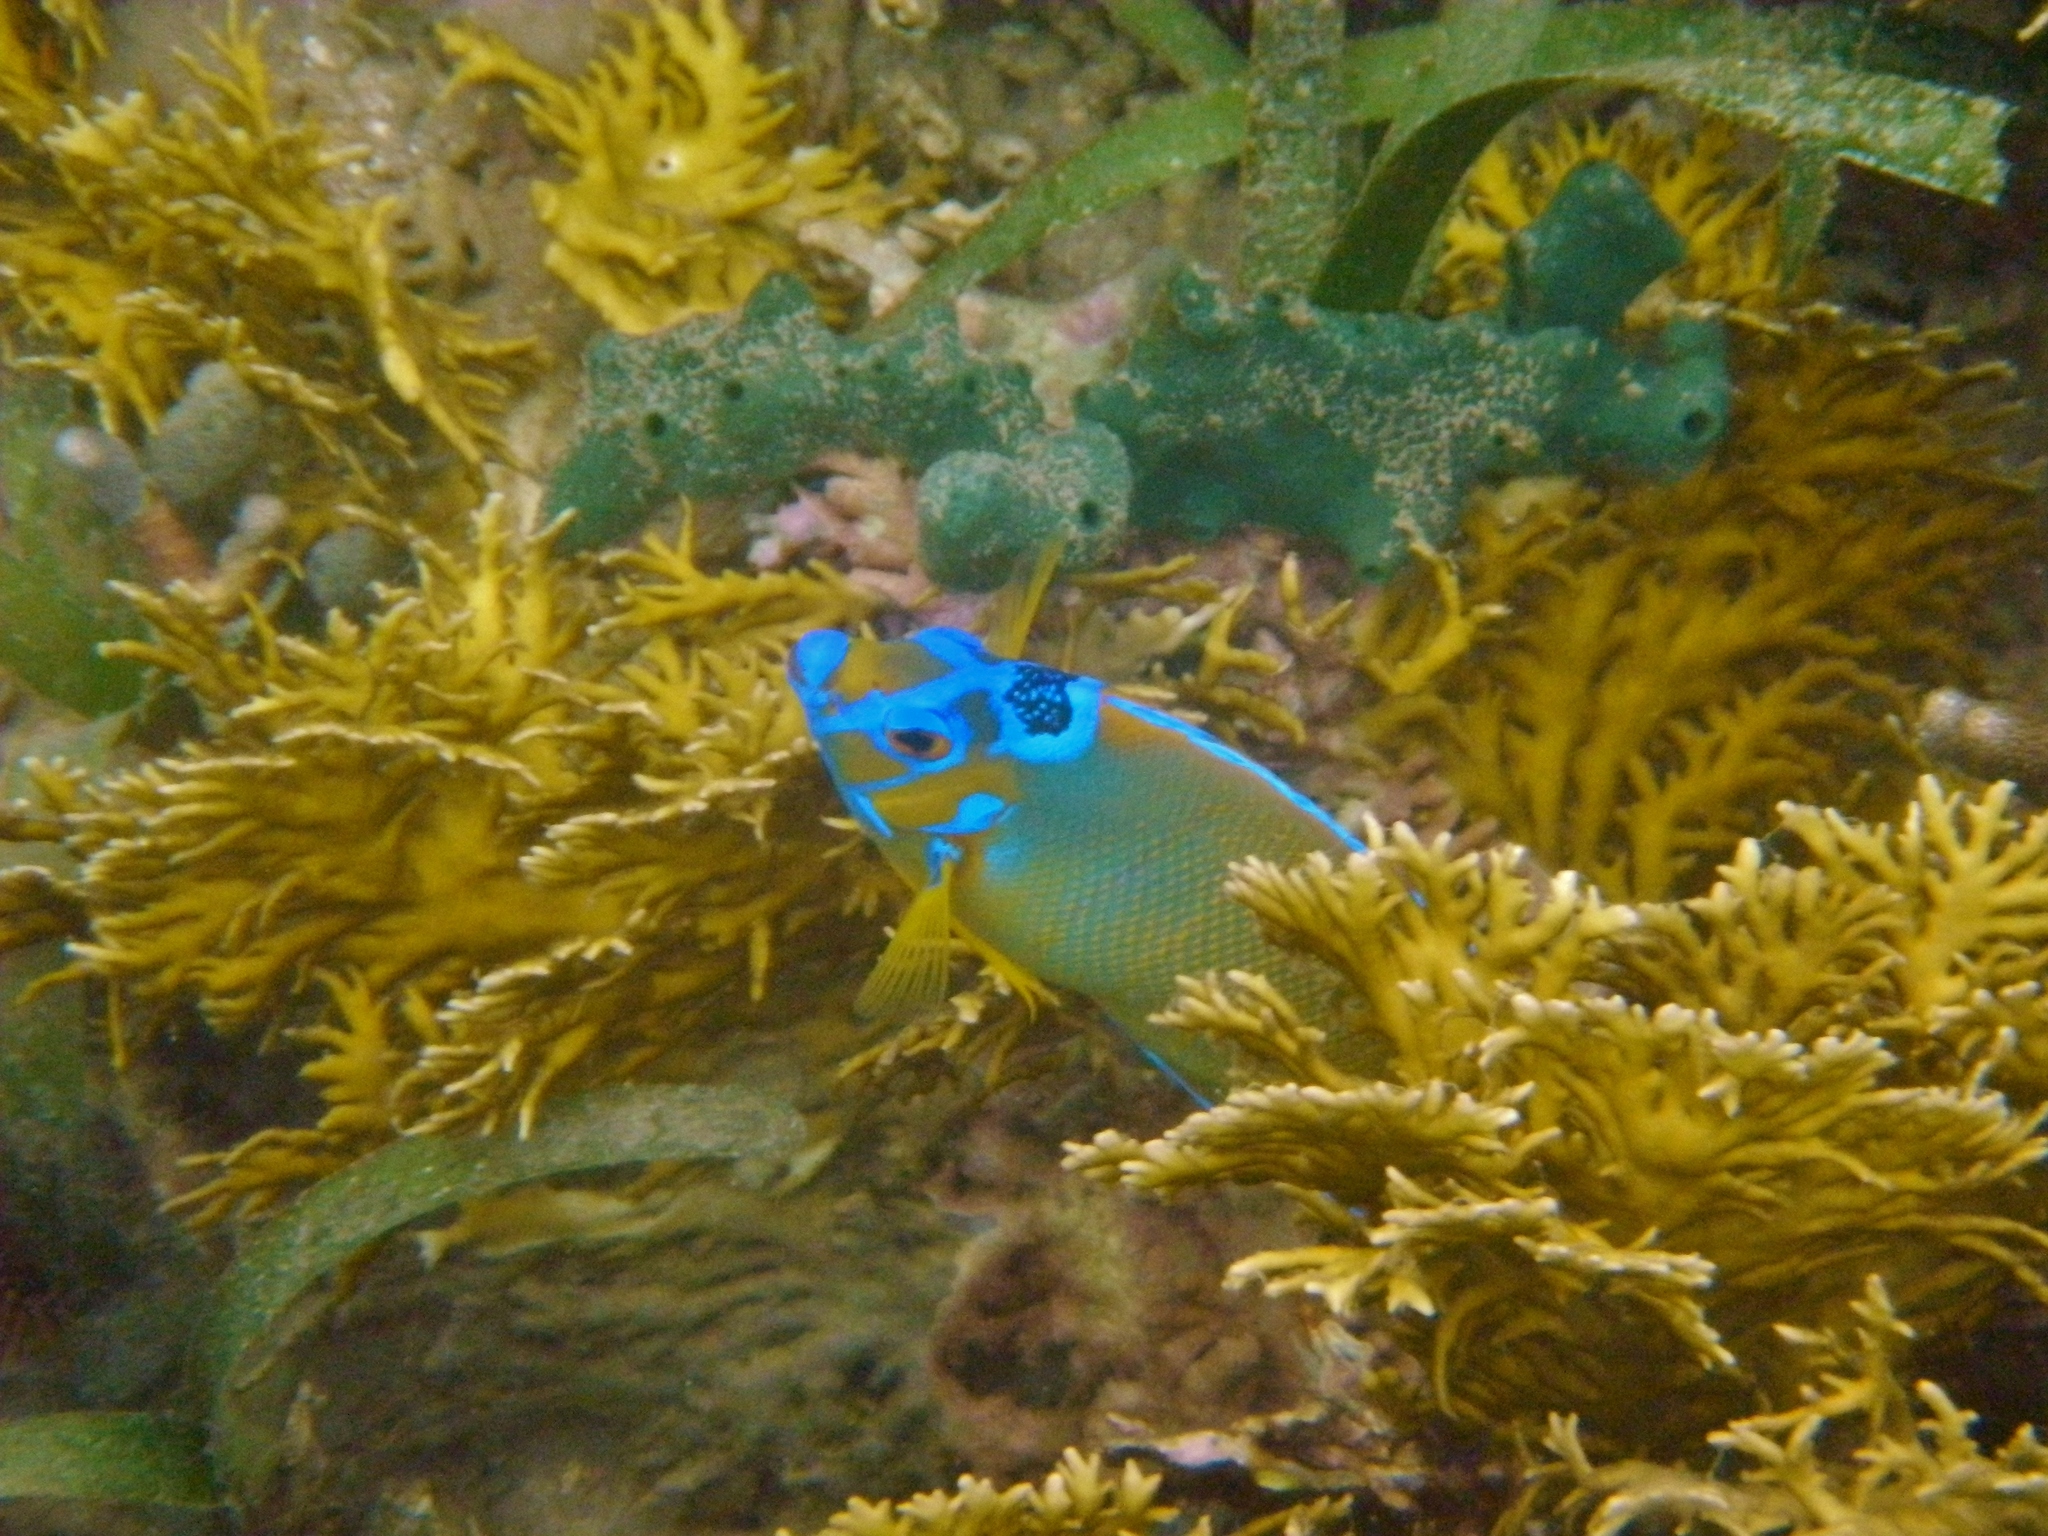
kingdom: Animalia
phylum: Chordata
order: Perciformes
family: Pomacanthidae
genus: Holacanthus
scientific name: Holacanthus ciliaris
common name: Queen angelfish
